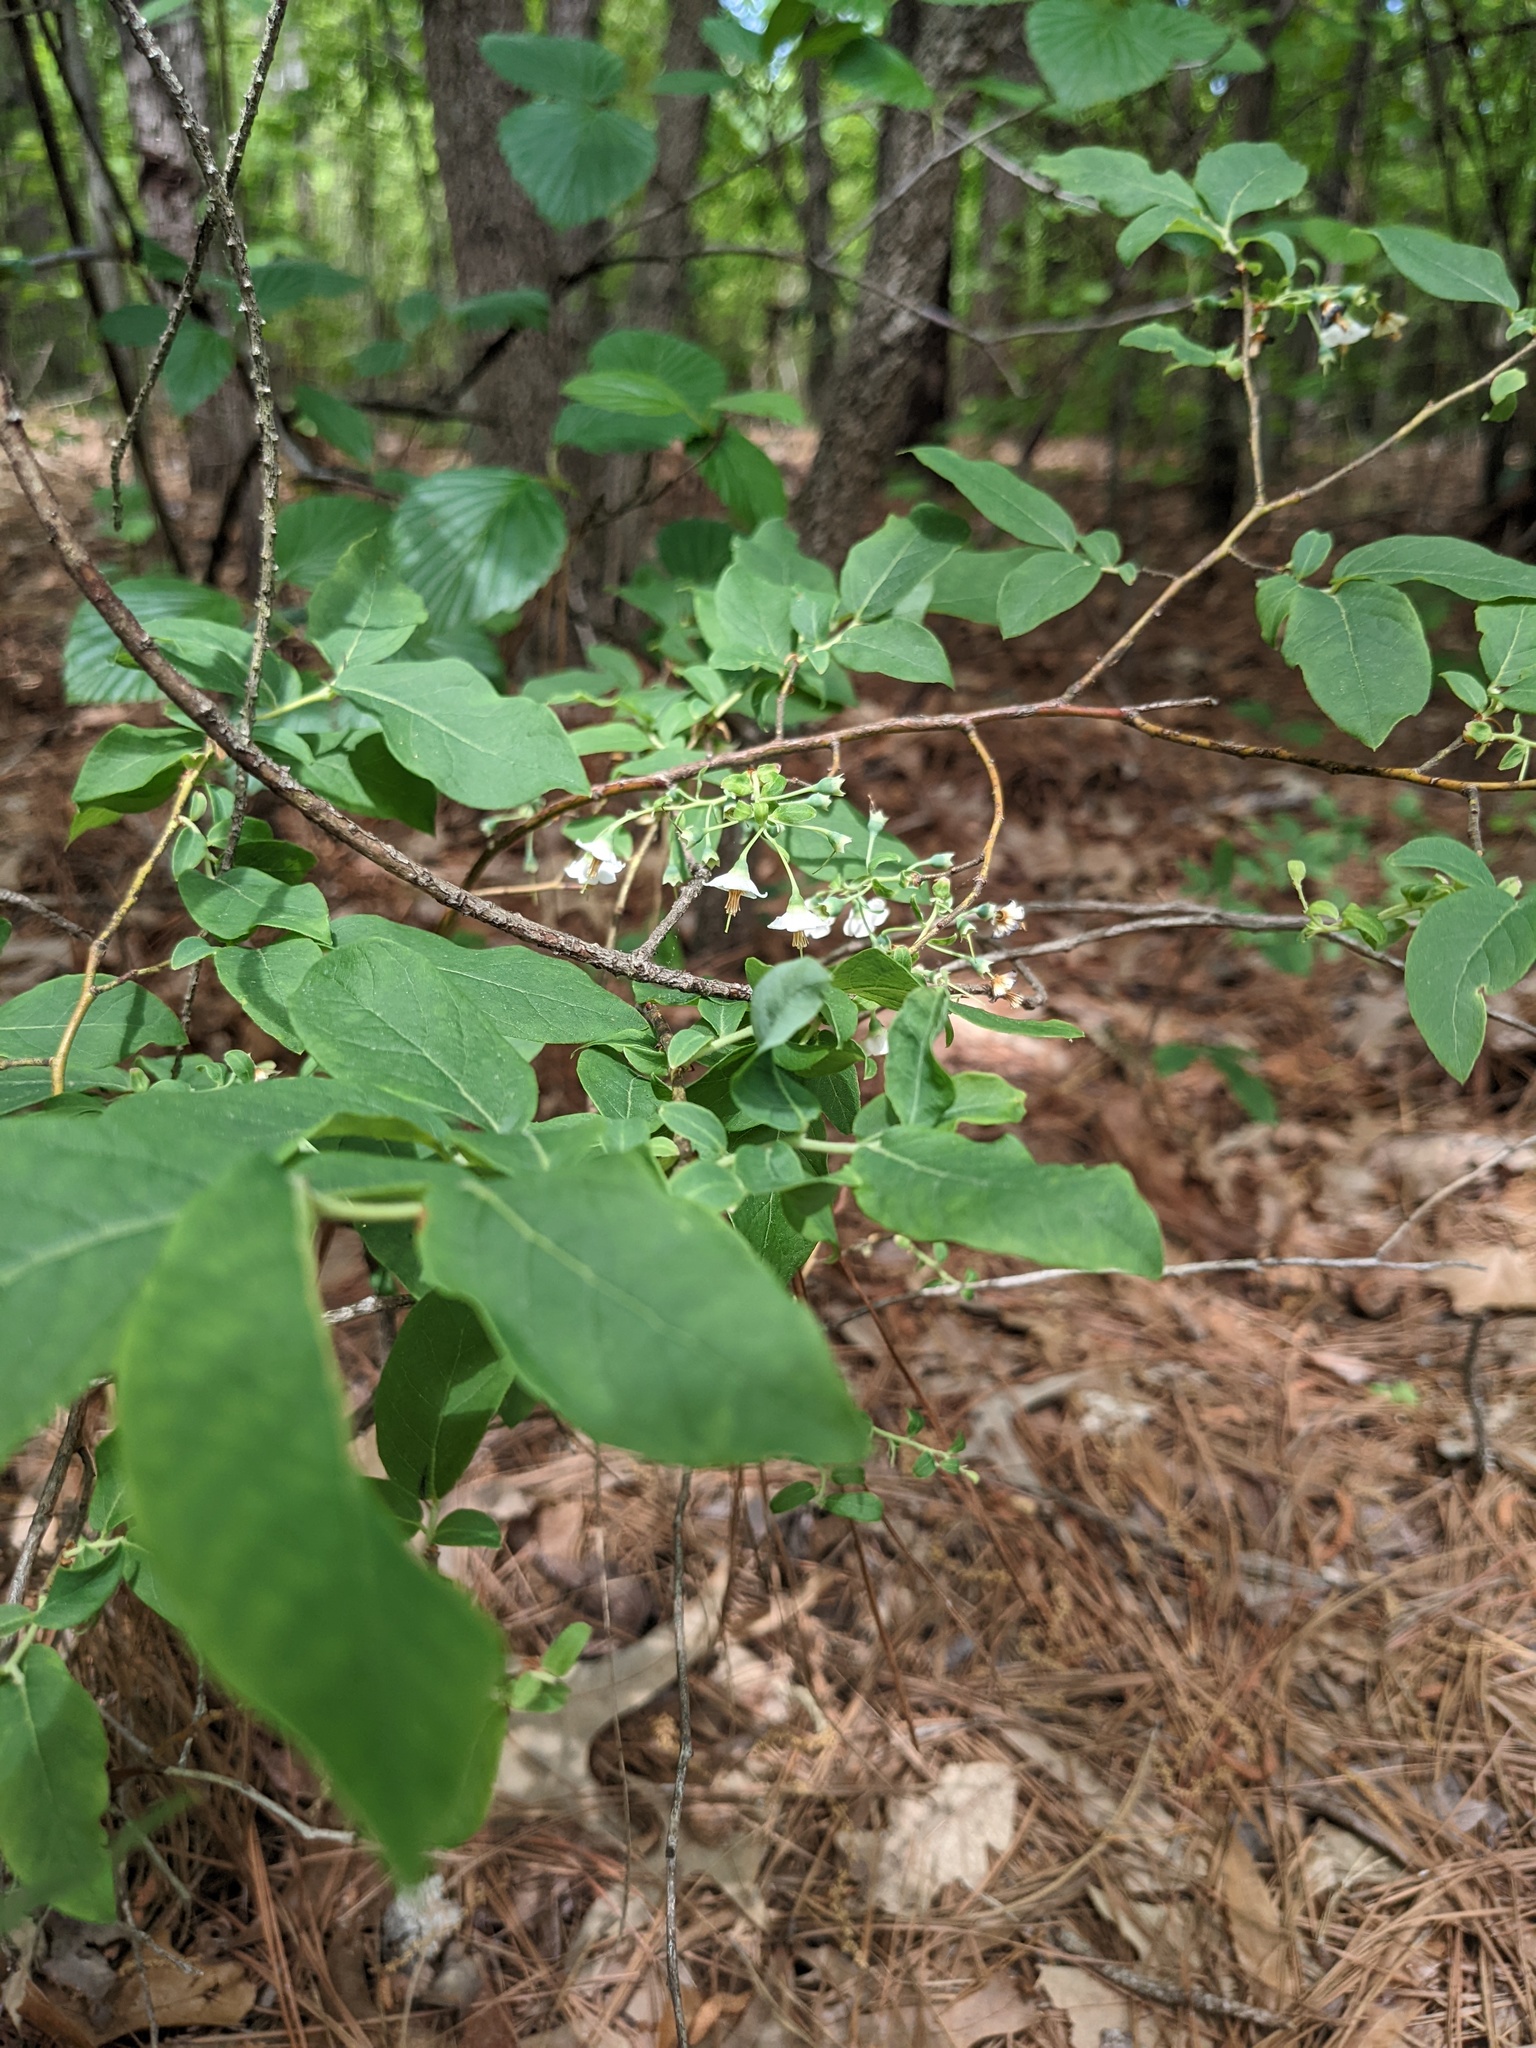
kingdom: Plantae
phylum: Tracheophyta
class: Magnoliopsida
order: Ericales
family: Ericaceae
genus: Vaccinium
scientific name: Vaccinium stamineum
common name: Deerberry
